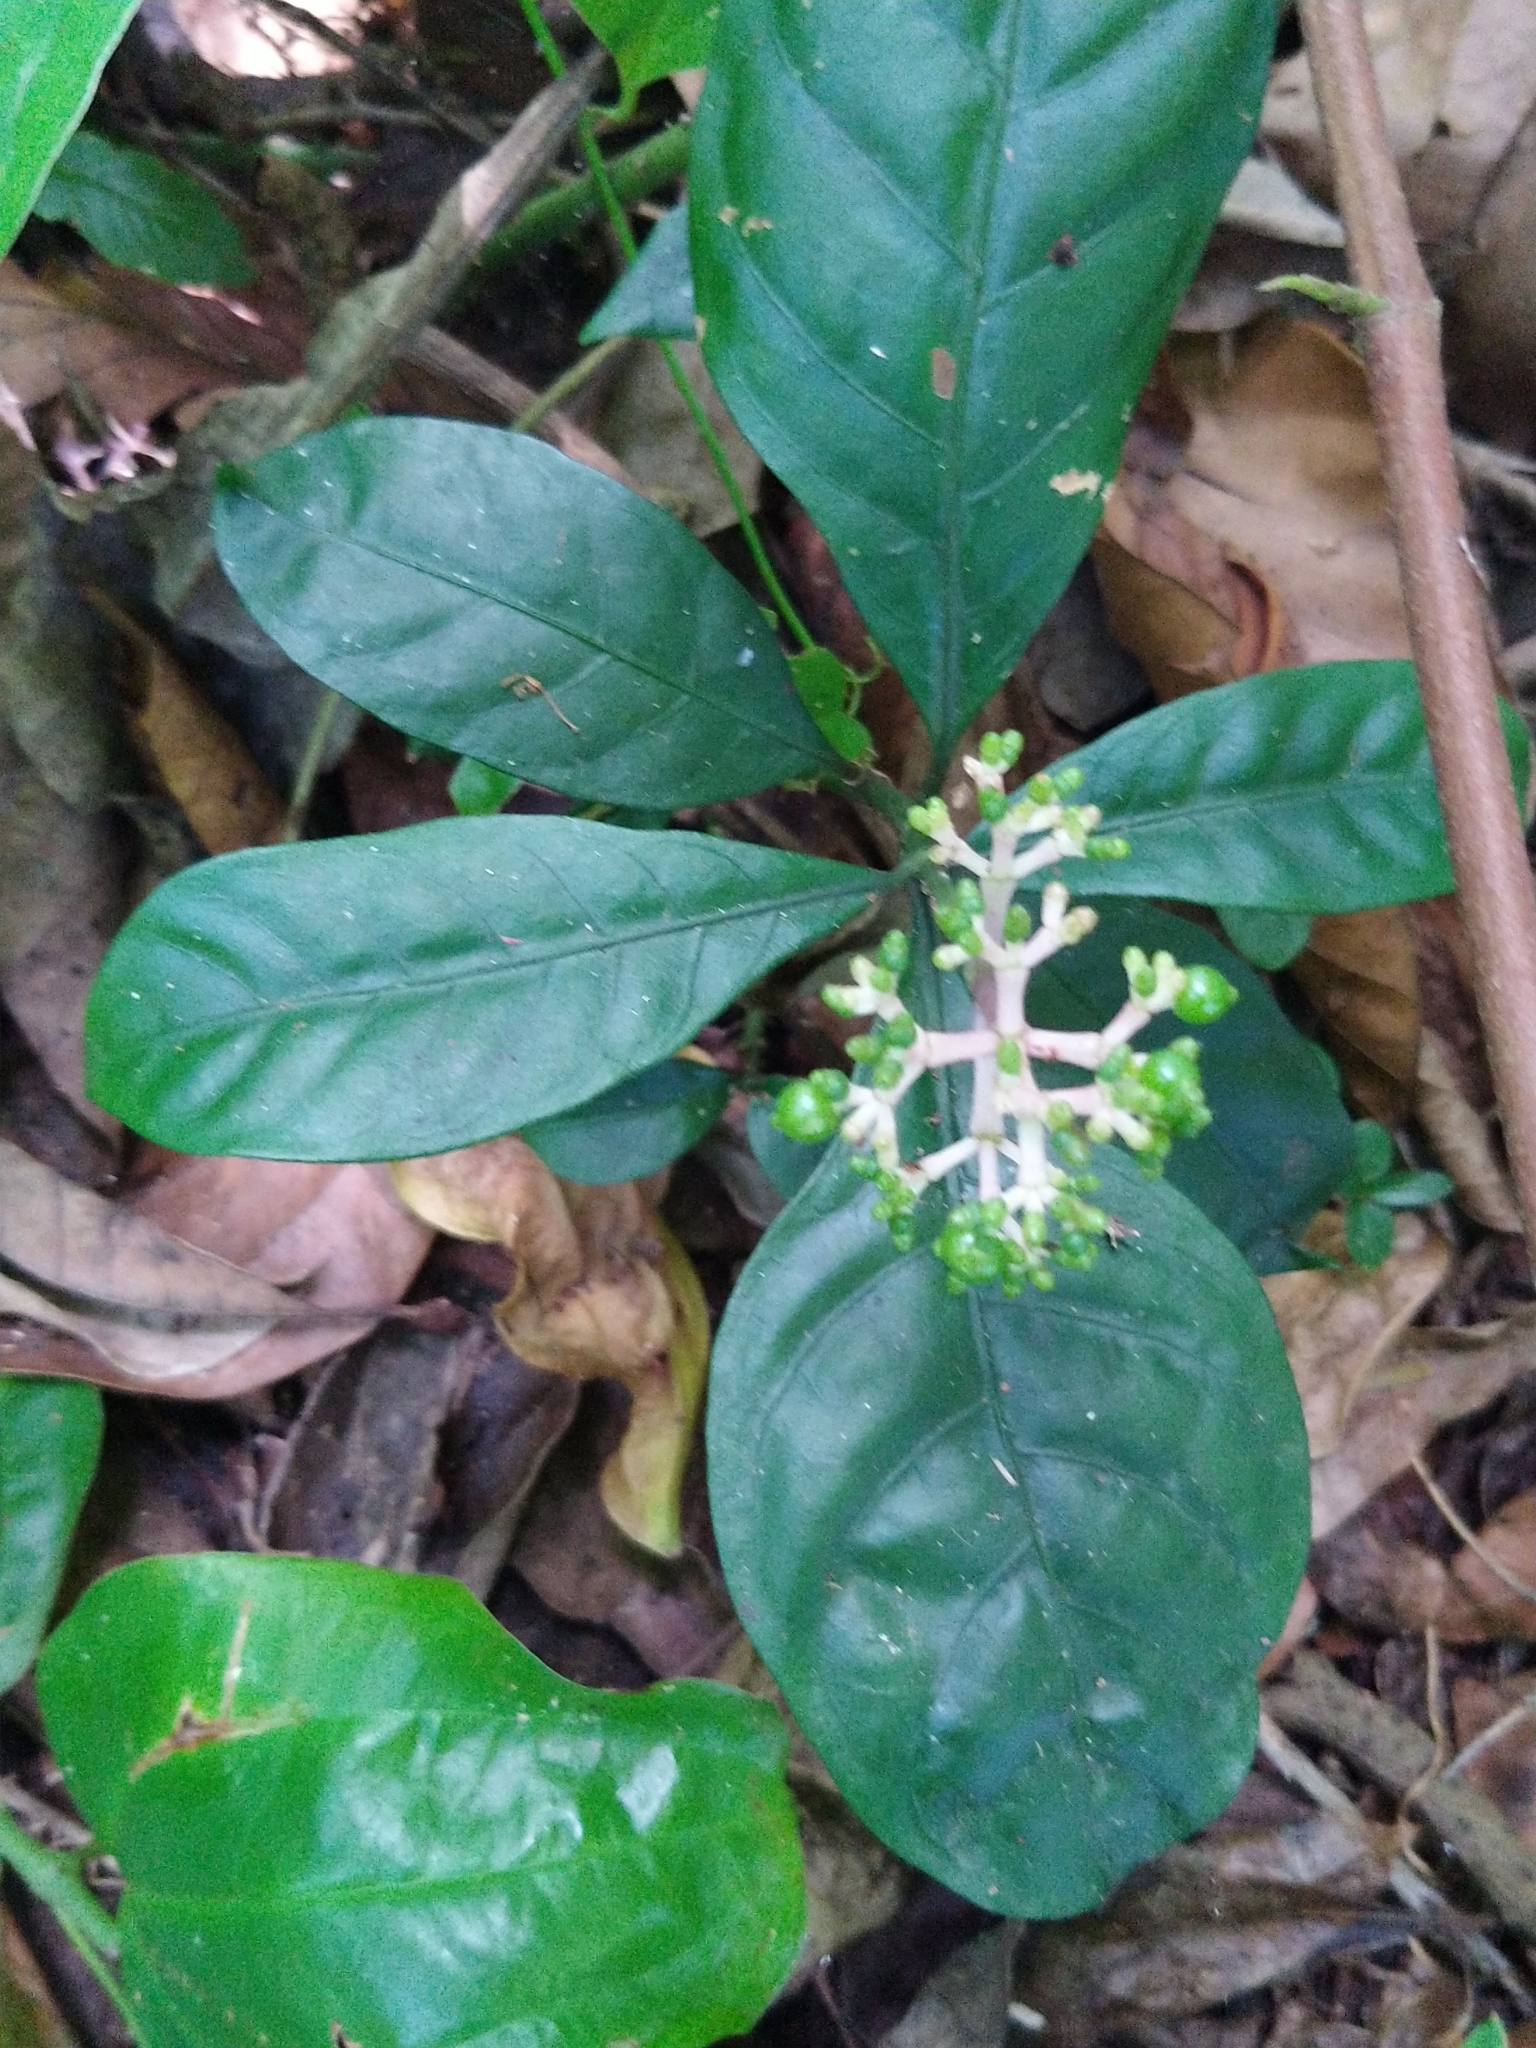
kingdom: Plantae
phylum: Tracheophyta
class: Magnoliopsida
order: Gentianales
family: Rubiaceae
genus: Chassalia
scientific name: Chassalia curviflora
